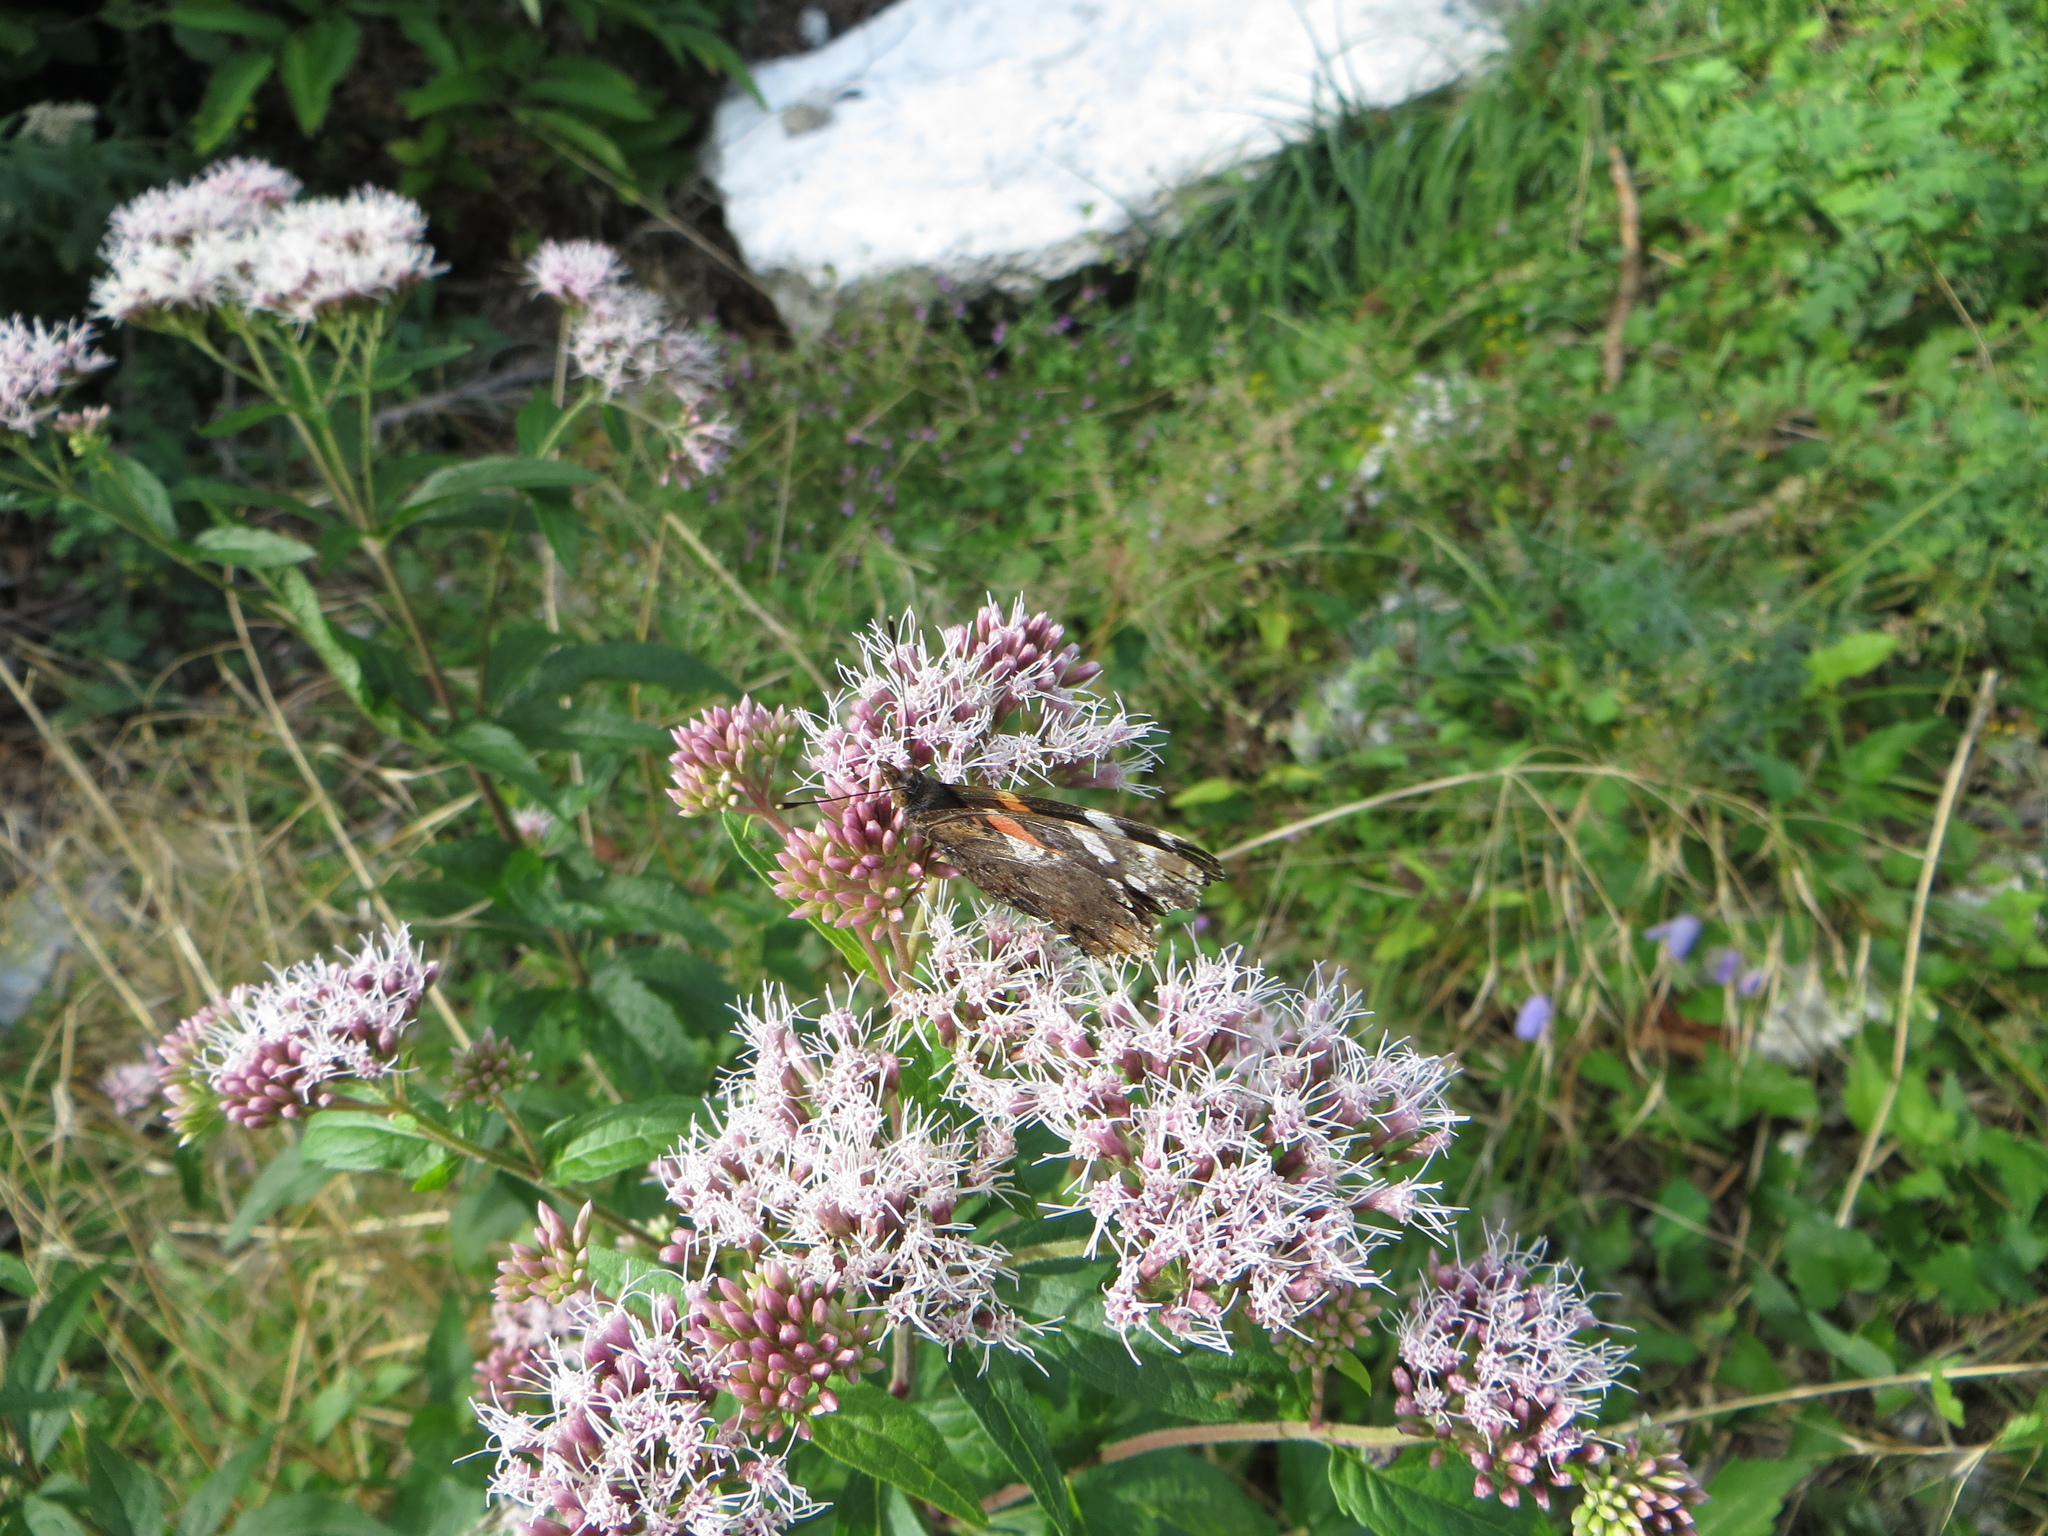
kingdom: Animalia
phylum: Arthropoda
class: Insecta
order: Lepidoptera
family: Nymphalidae
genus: Vanessa
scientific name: Vanessa atalanta
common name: Red admiral
